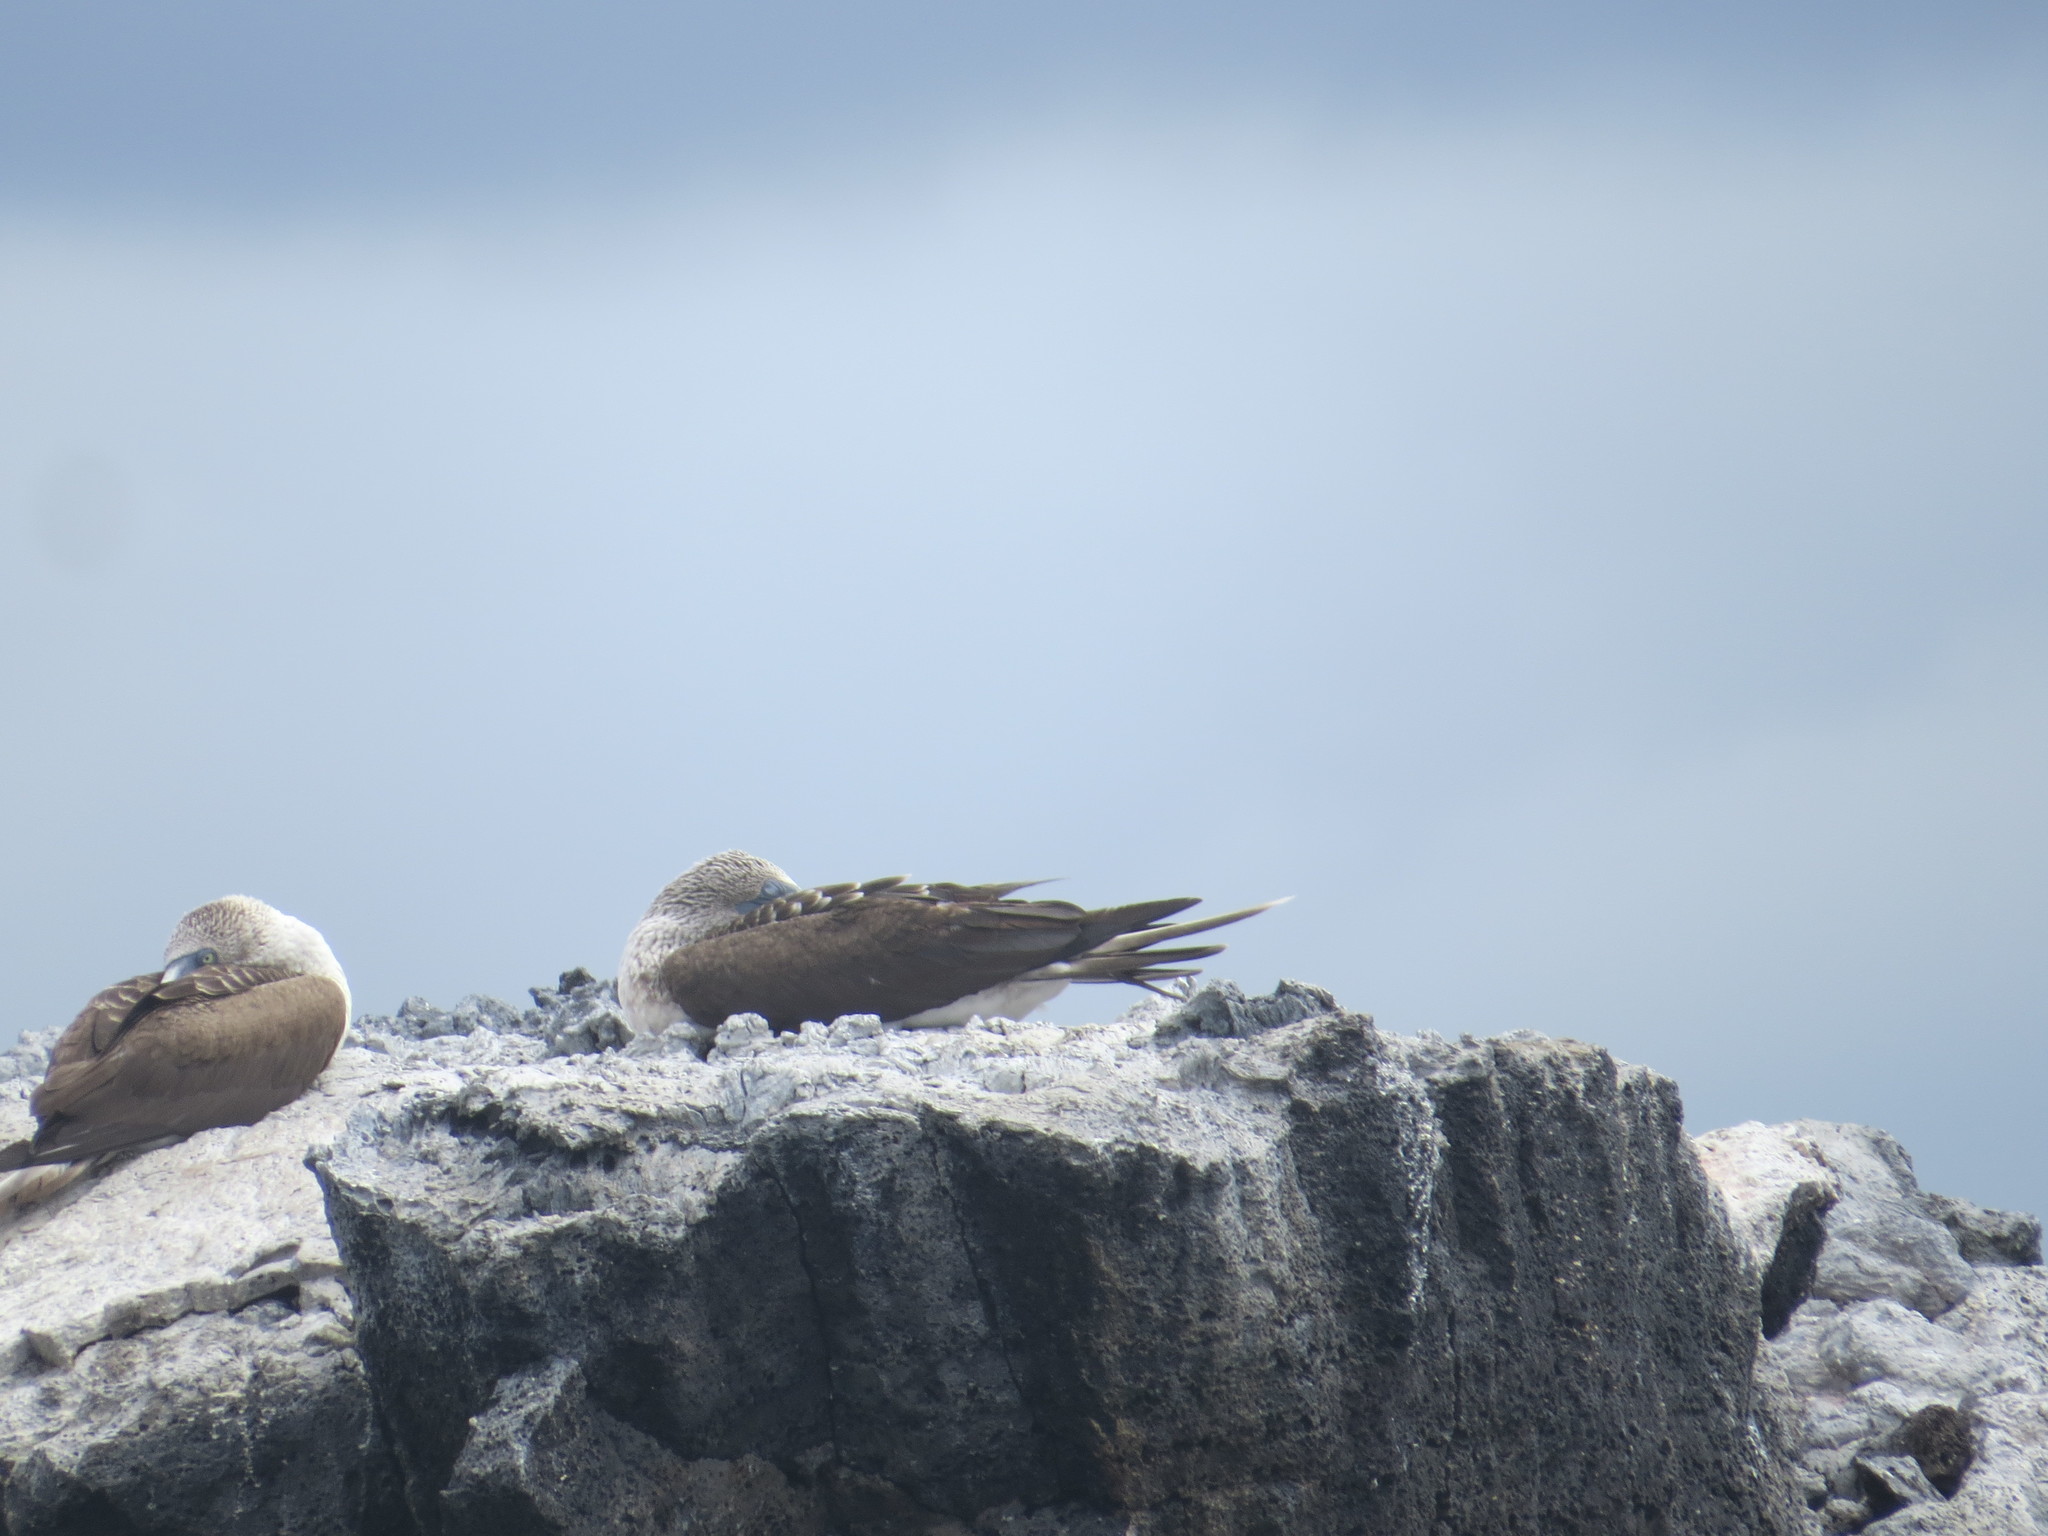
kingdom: Animalia
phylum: Chordata
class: Aves
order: Suliformes
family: Sulidae
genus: Sula
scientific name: Sula nebouxii
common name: Blue-footed booby
